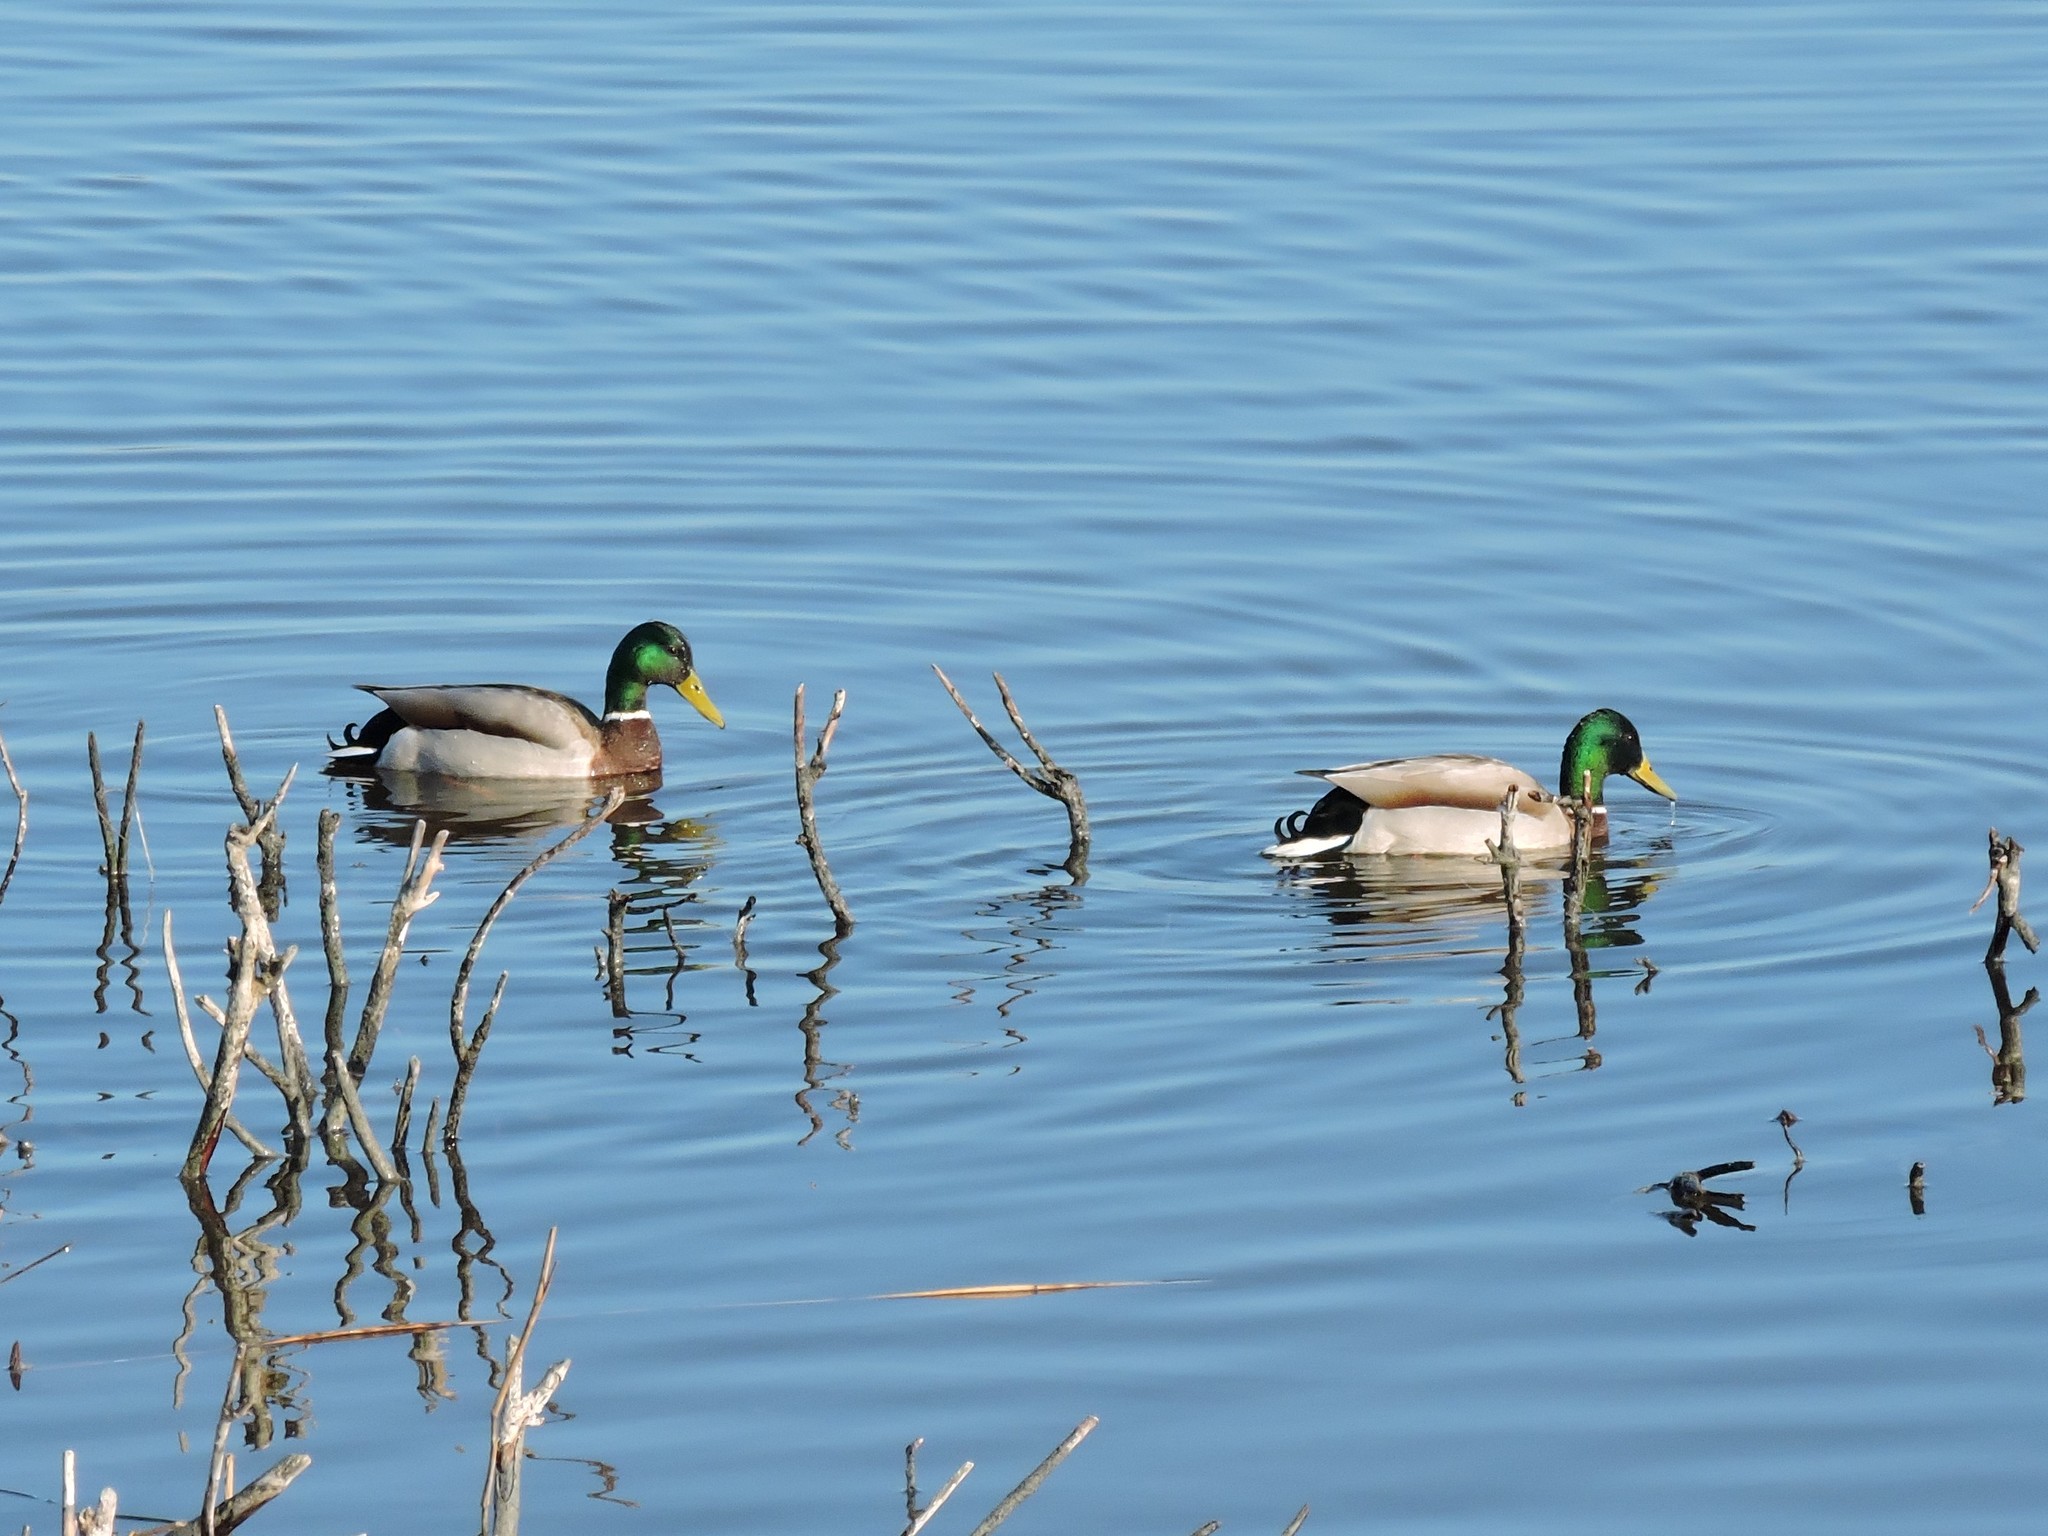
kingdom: Animalia
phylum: Chordata
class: Aves
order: Anseriformes
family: Anatidae
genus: Anas
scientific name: Anas platyrhynchos
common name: Mallard
